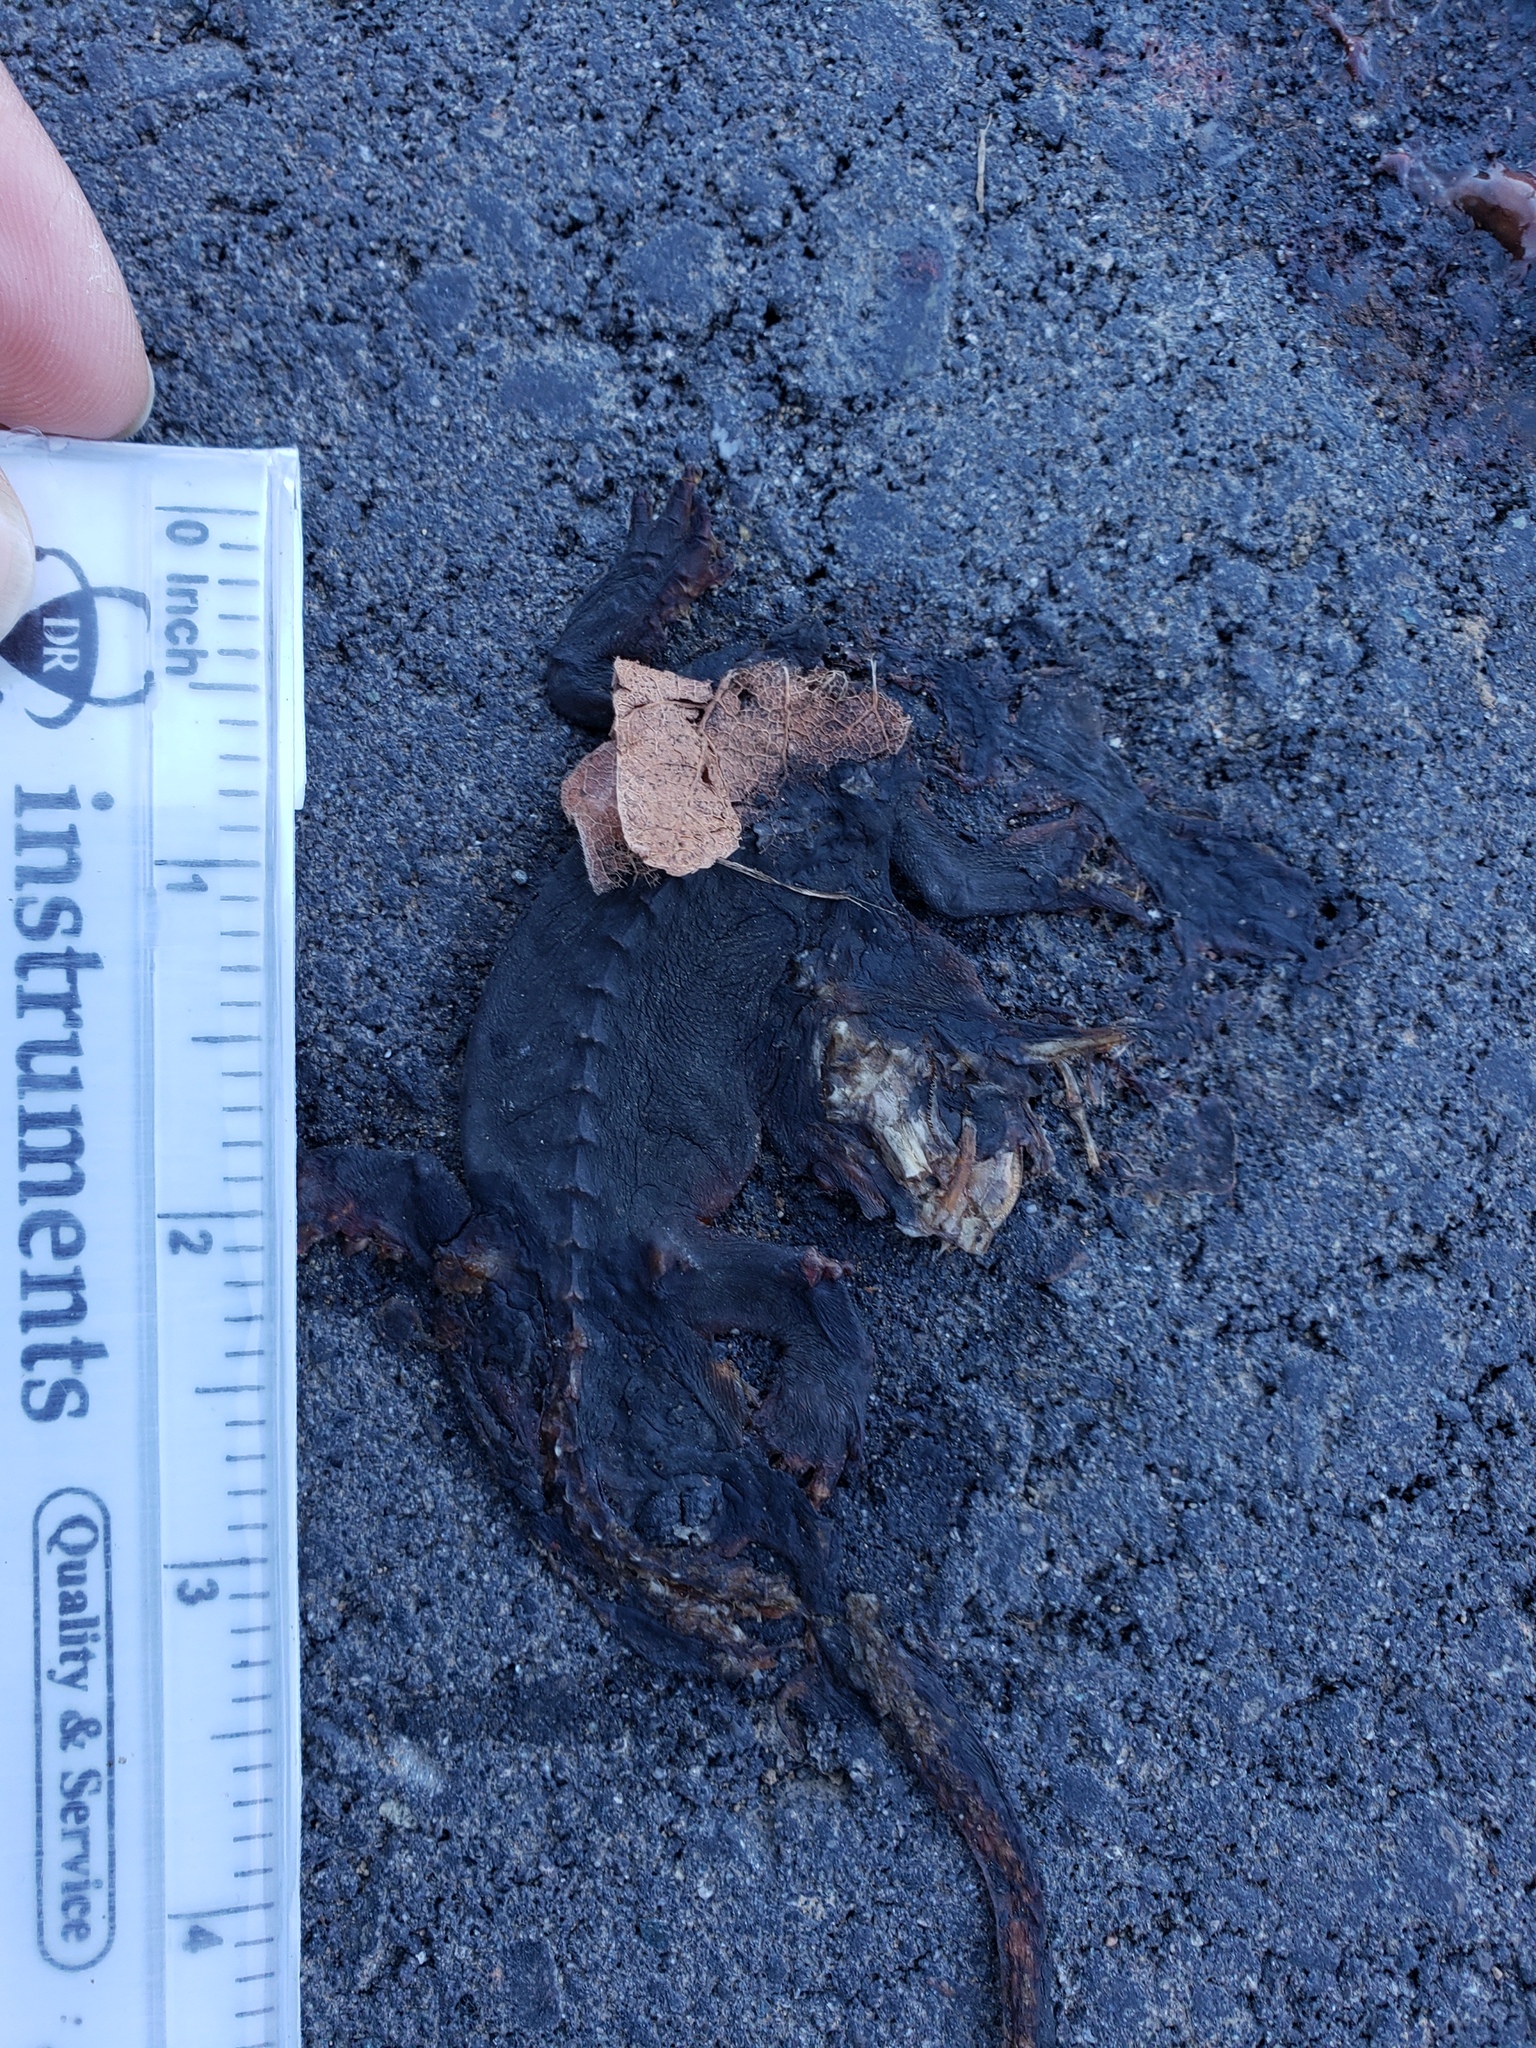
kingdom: Animalia
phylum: Chordata
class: Amphibia
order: Caudata
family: Salamandridae
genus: Taricha
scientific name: Taricha
